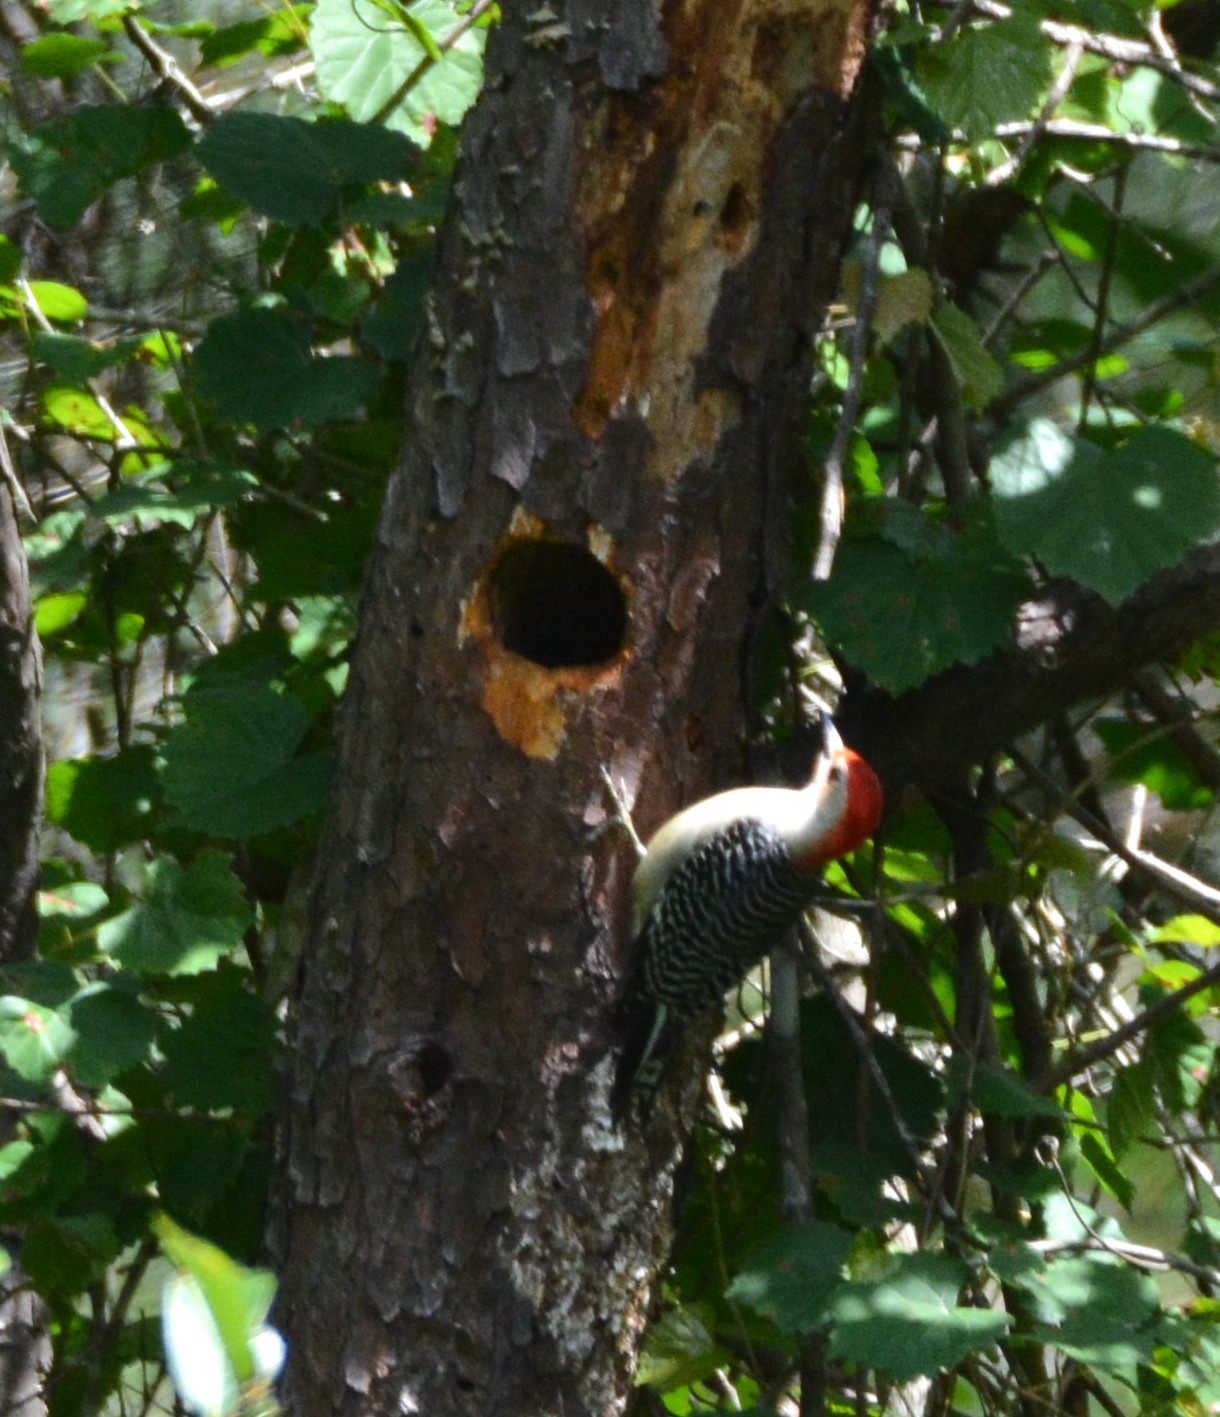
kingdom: Animalia
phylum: Chordata
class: Aves
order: Piciformes
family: Picidae
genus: Melanerpes
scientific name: Melanerpes carolinus
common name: Red-bellied woodpecker
